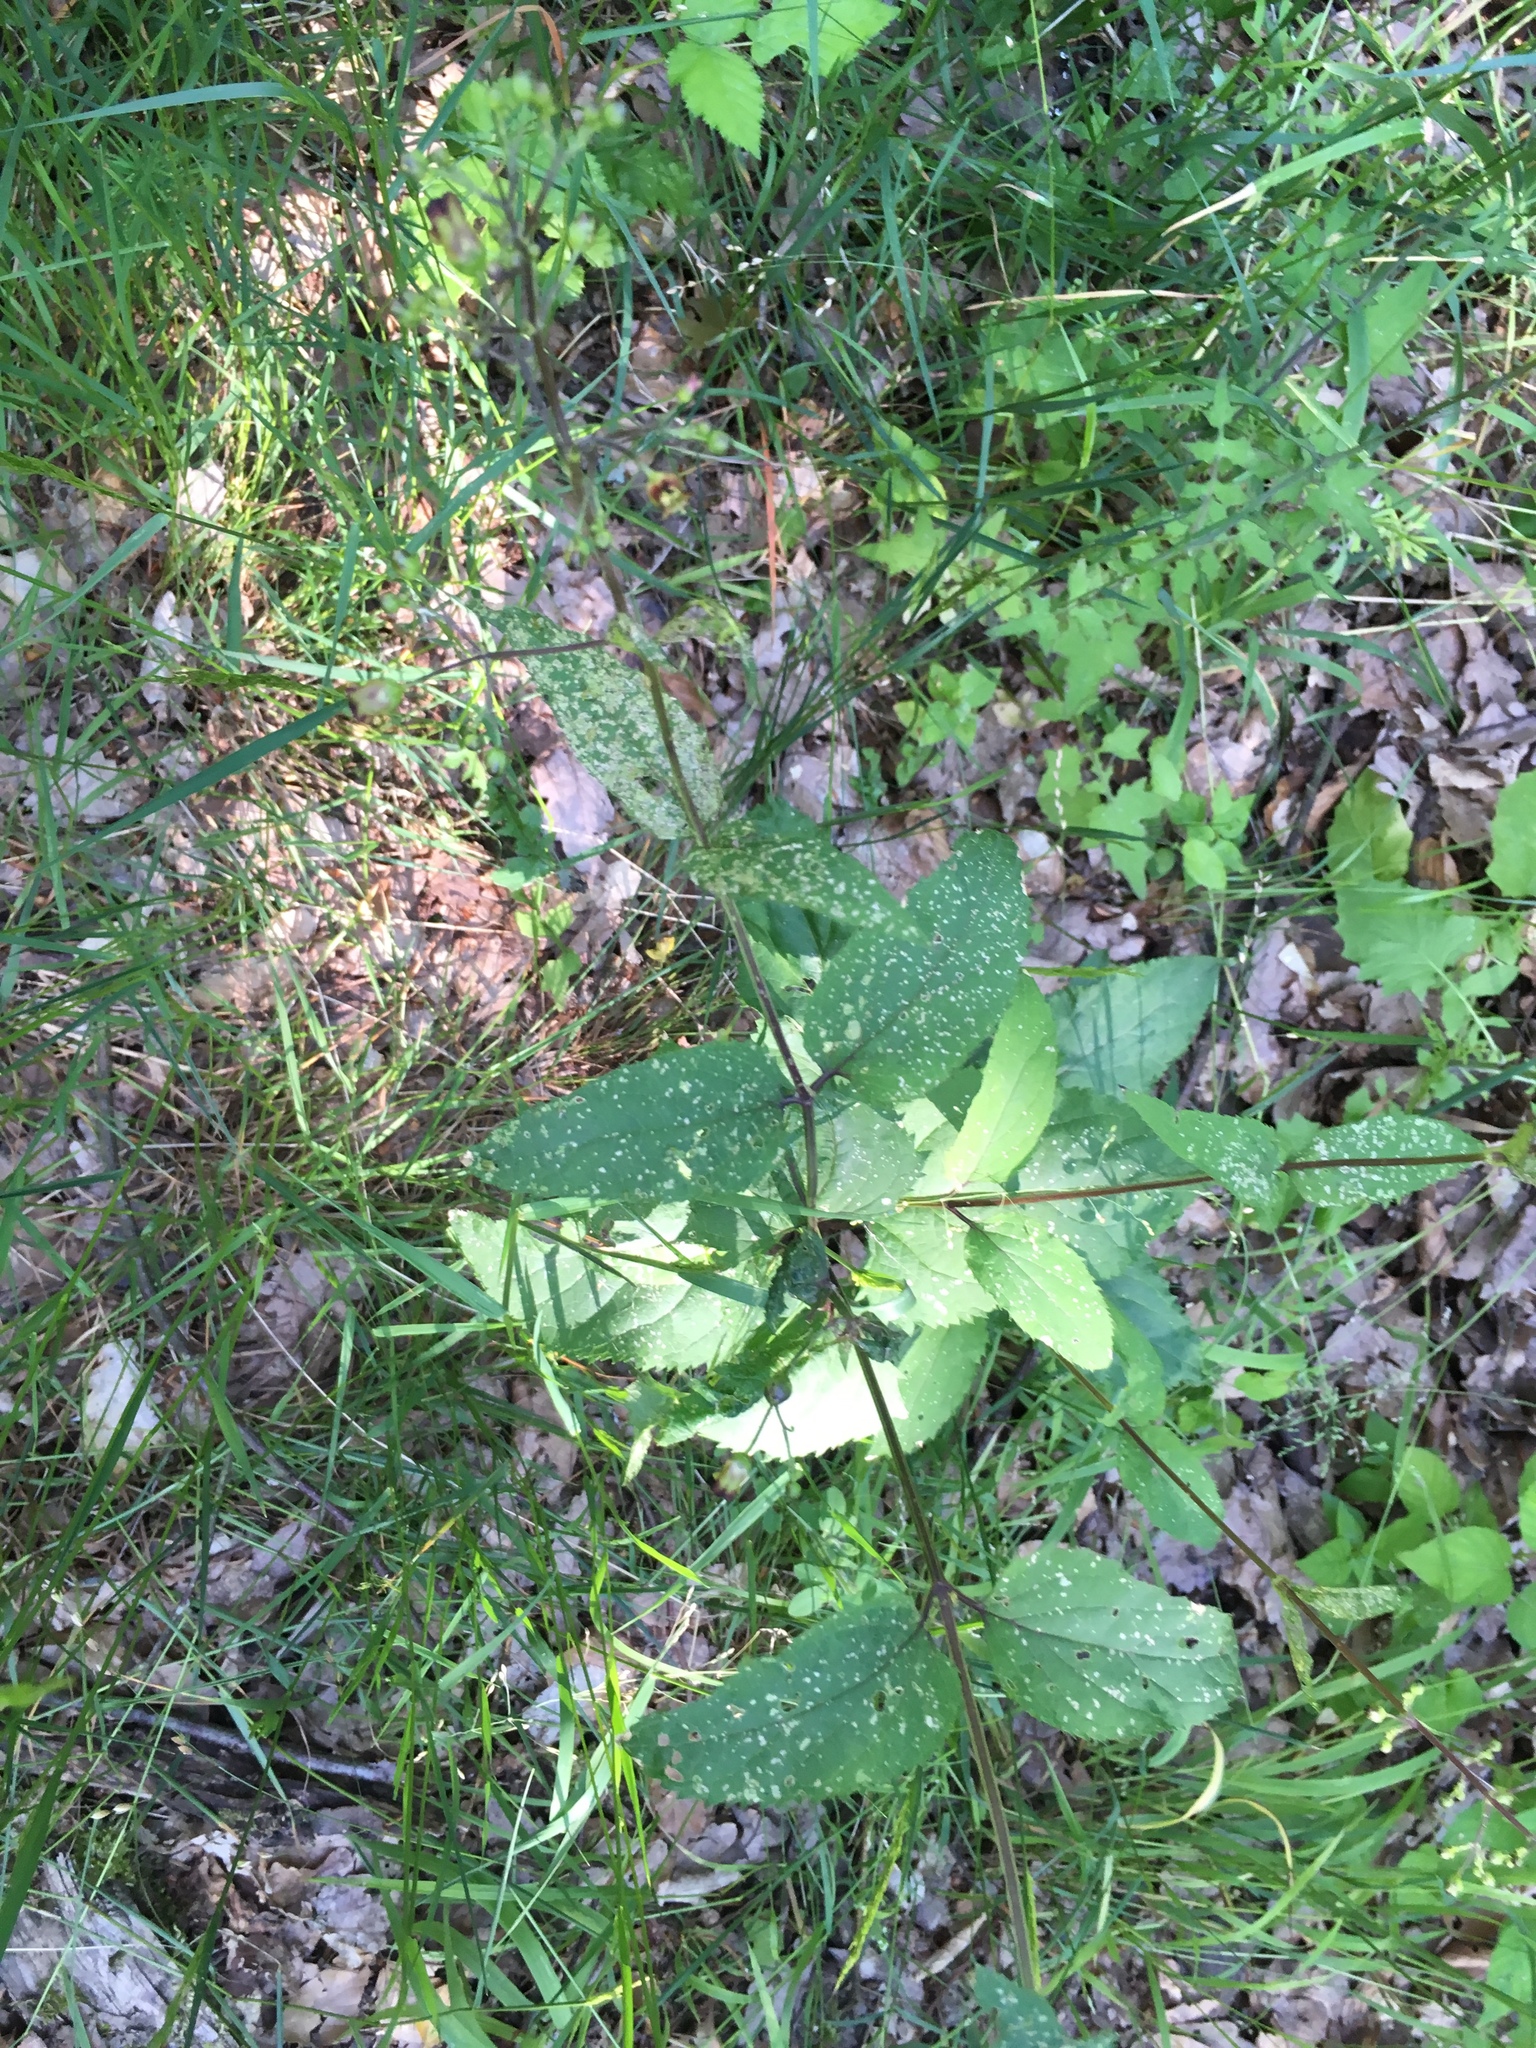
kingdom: Plantae
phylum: Tracheophyta
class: Magnoliopsida
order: Lamiales
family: Scrophulariaceae
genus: Scrophularia
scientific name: Scrophularia nodosa
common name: Common figwort
